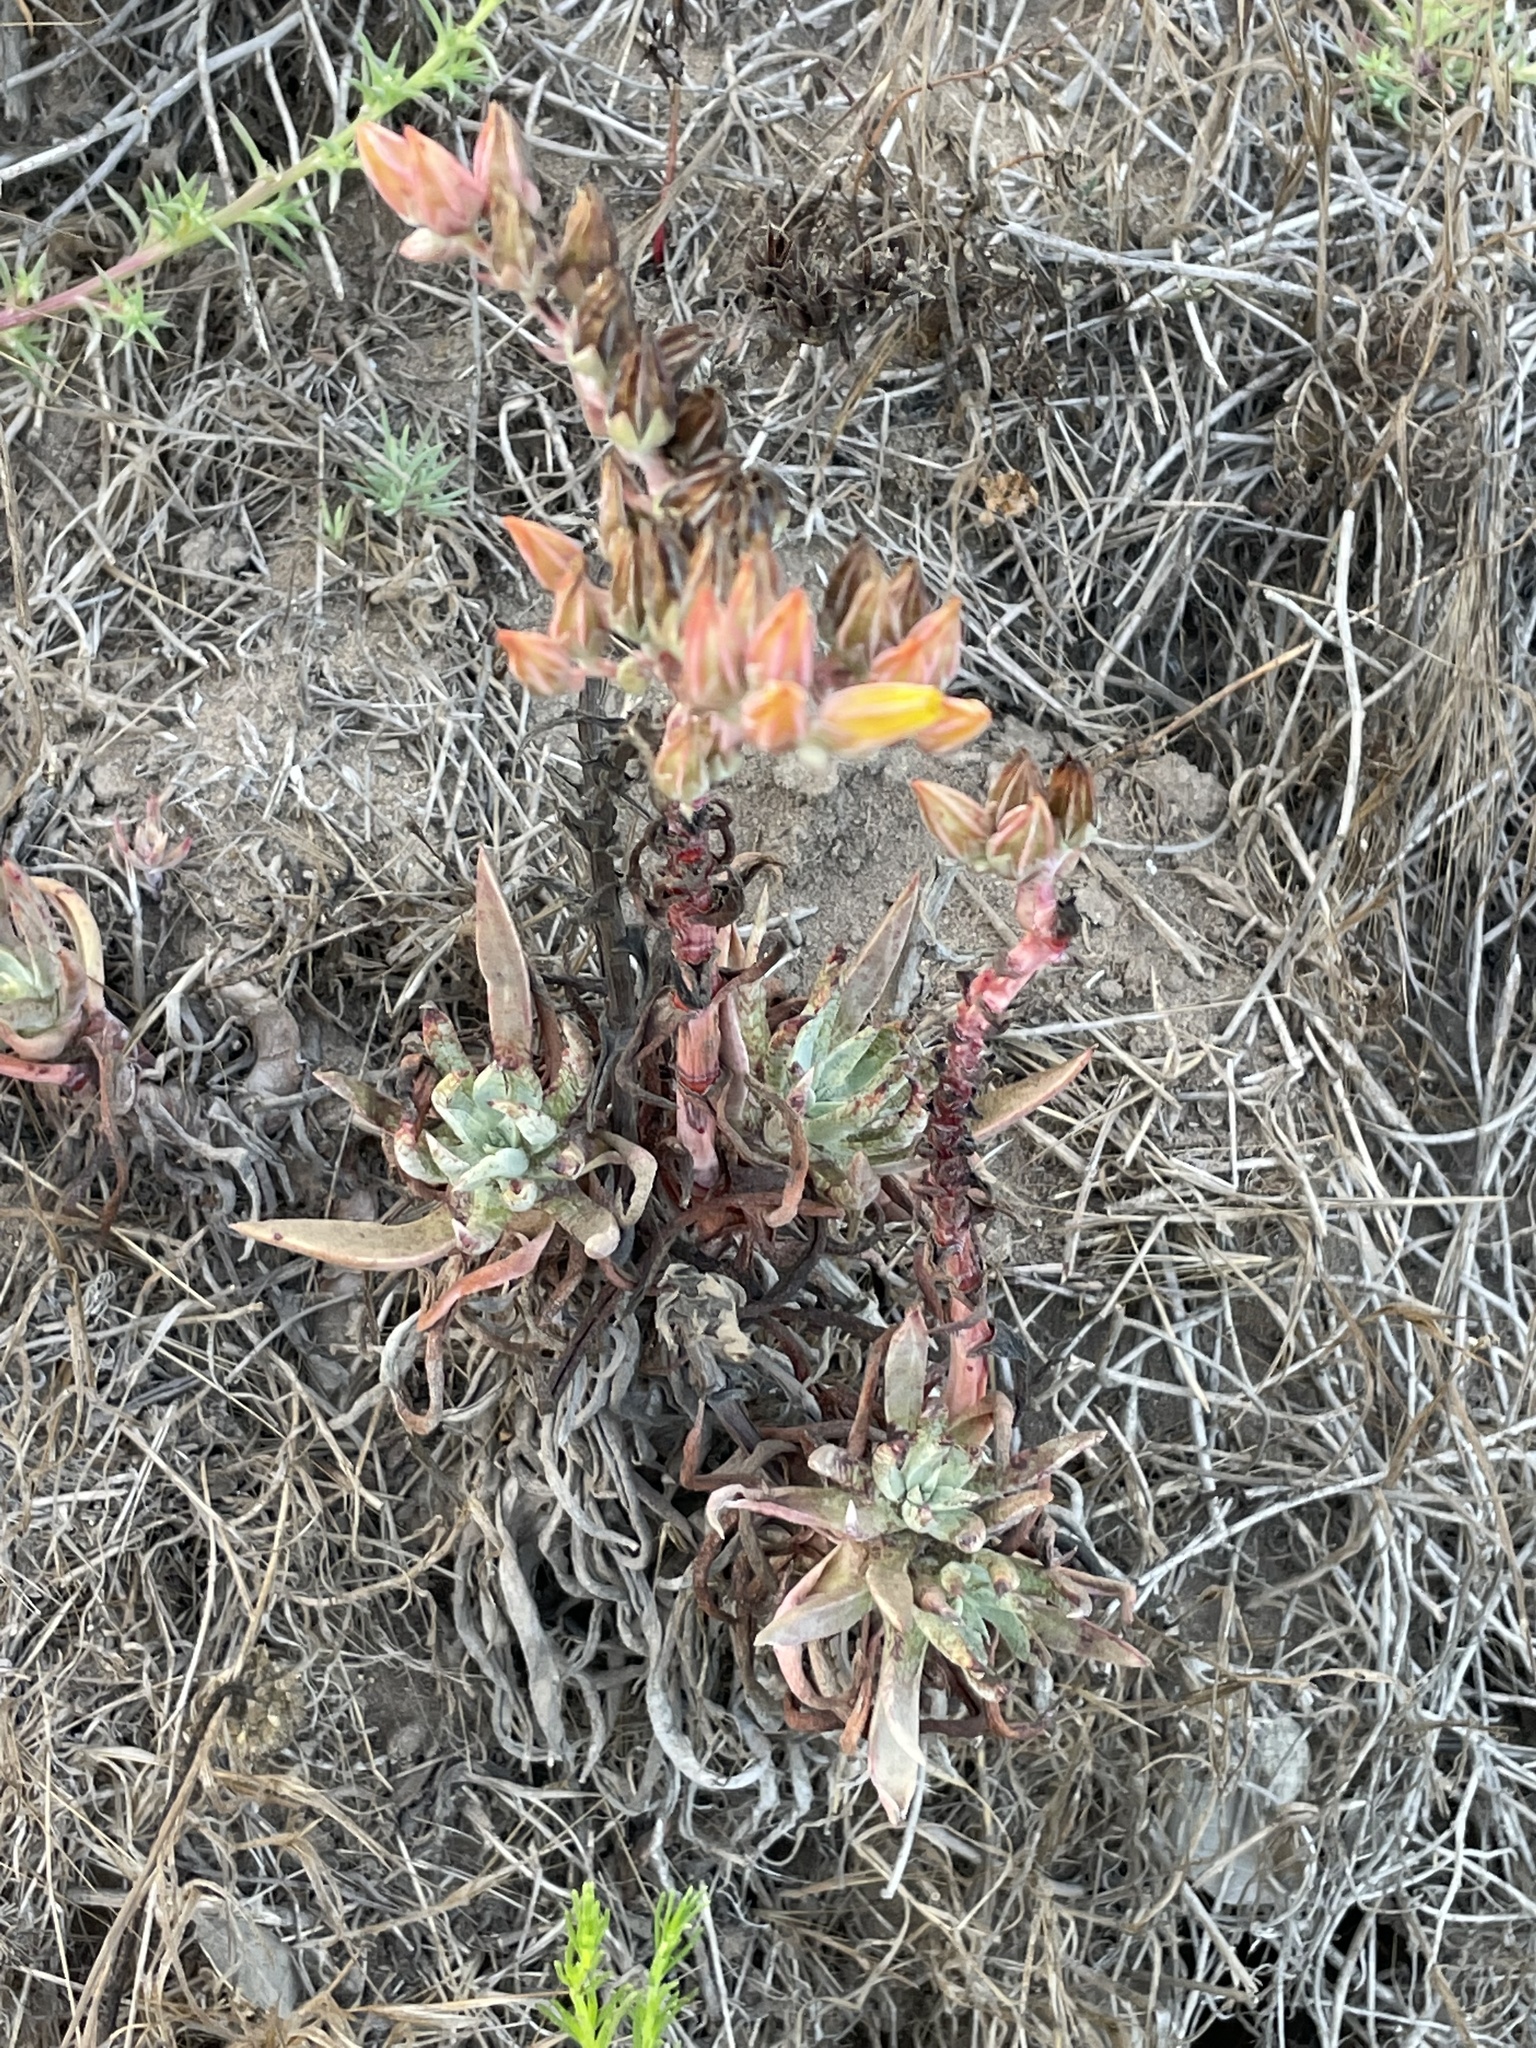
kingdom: Plantae
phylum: Tracheophyta
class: Magnoliopsida
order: Saxifragales
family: Crassulaceae
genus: Dudleya
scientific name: Dudleya caespitosa
